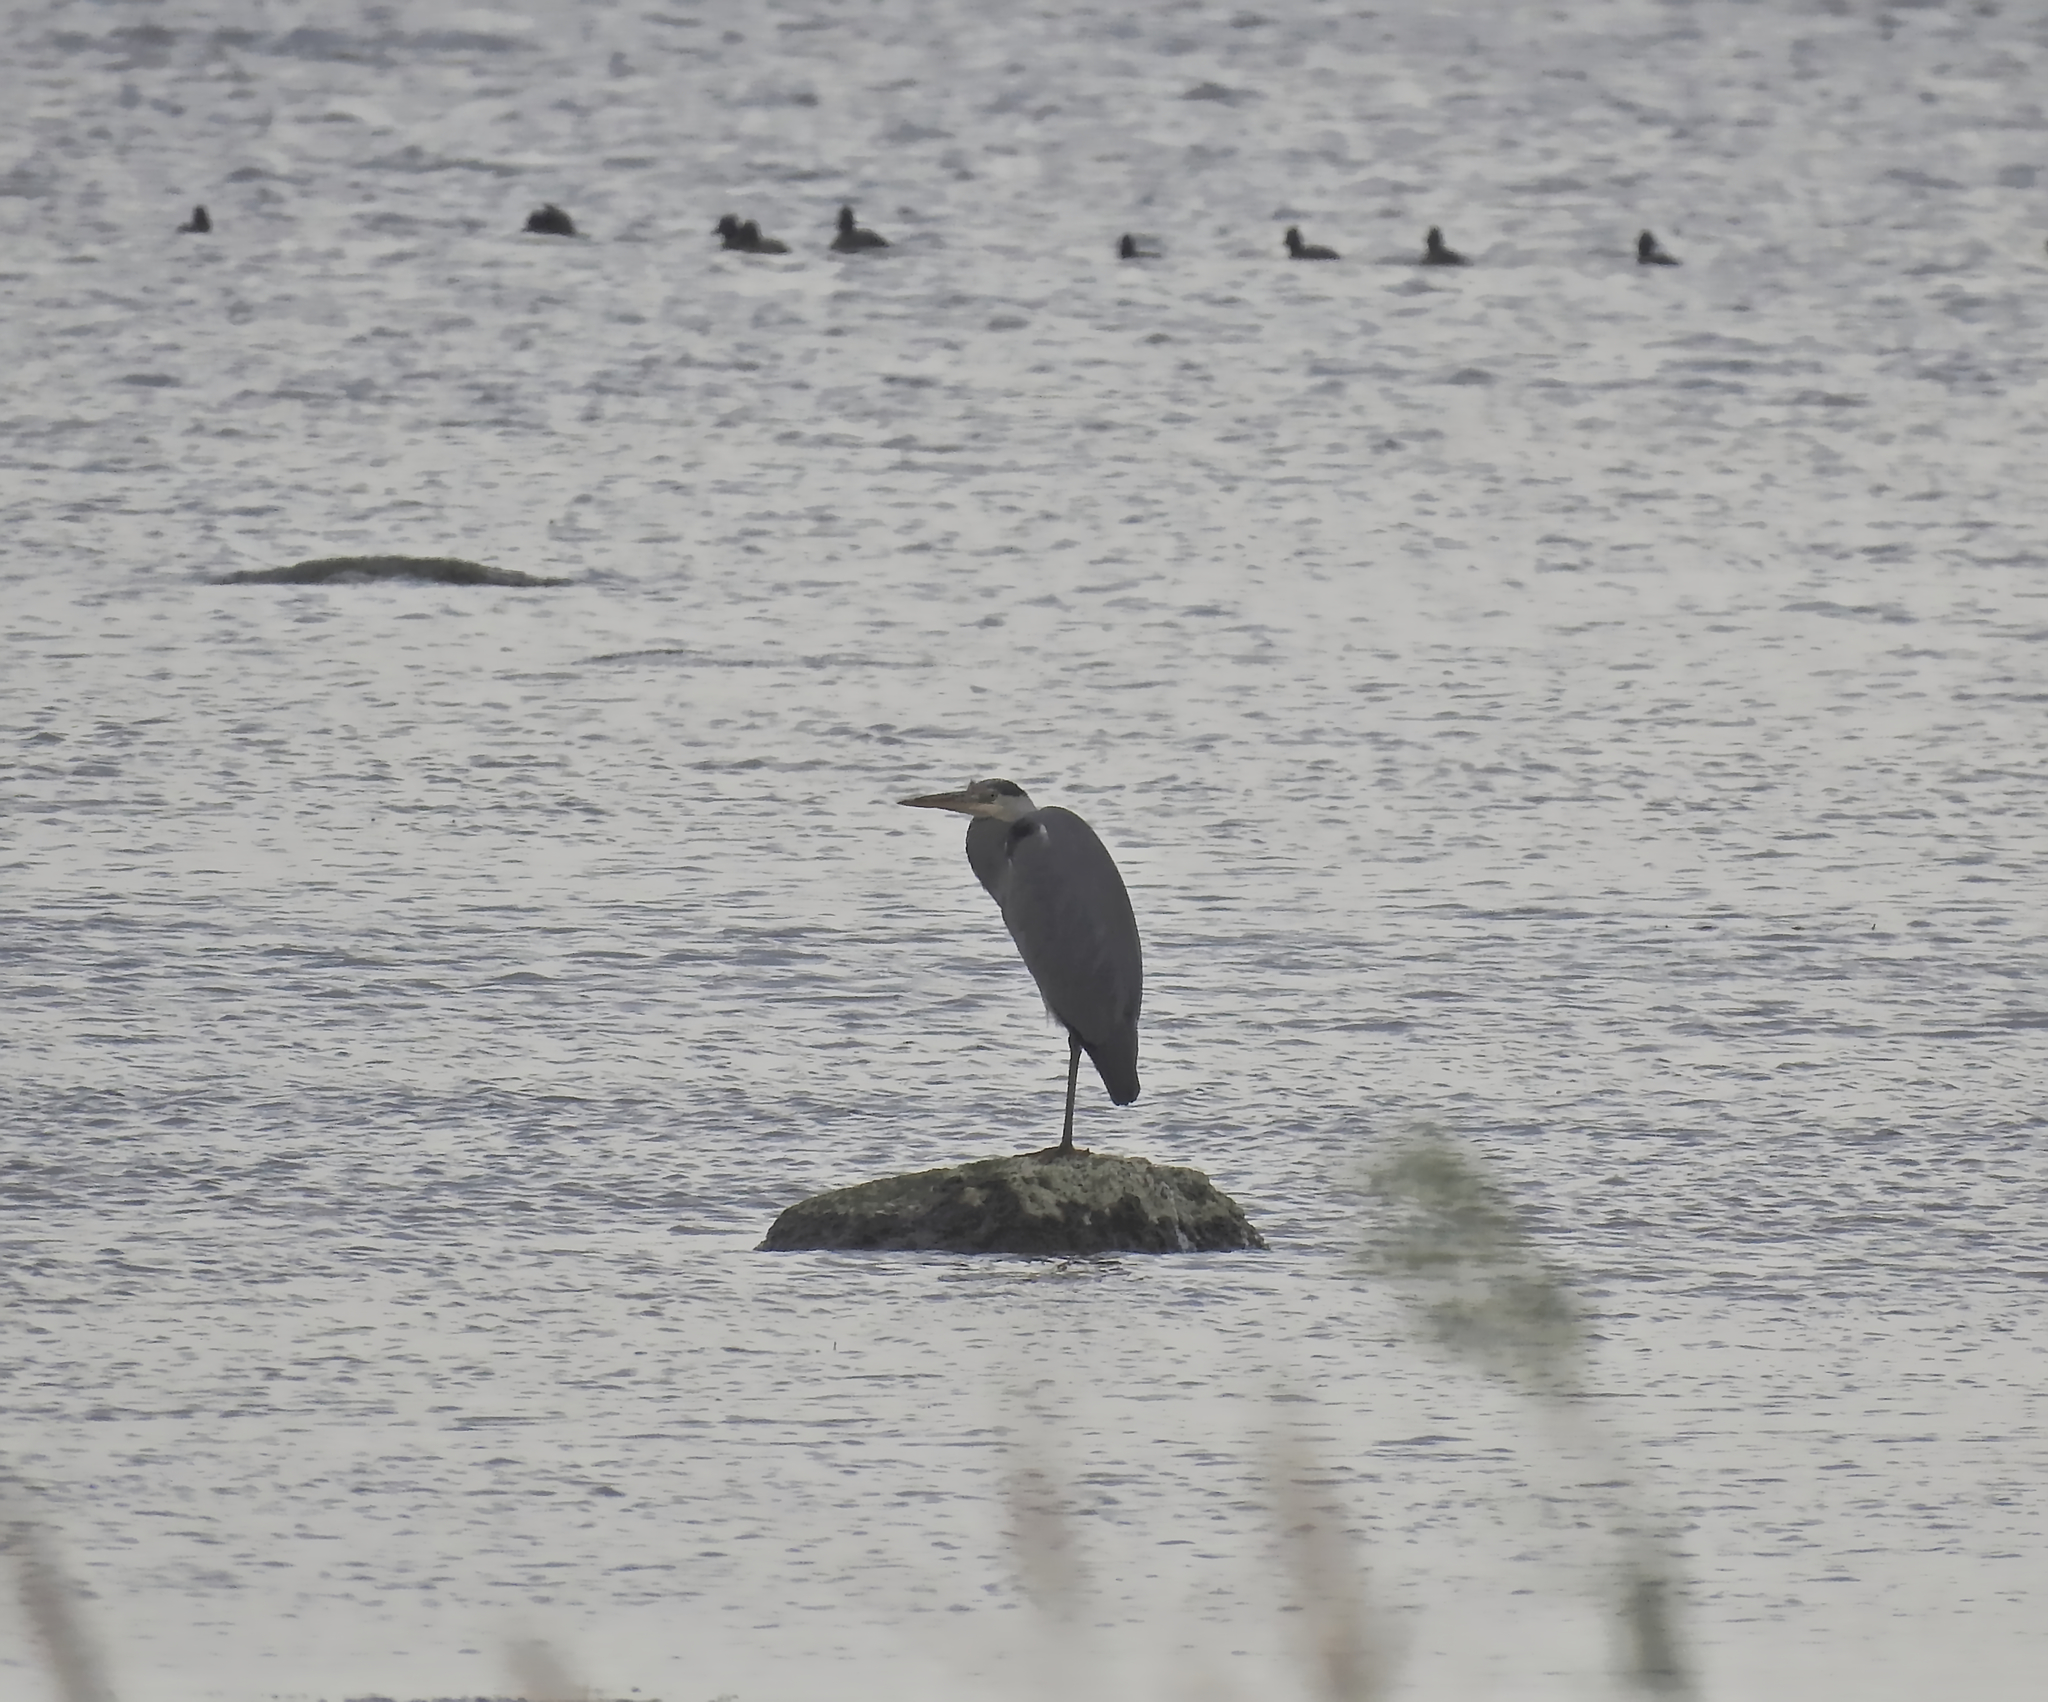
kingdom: Animalia
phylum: Chordata
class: Aves
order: Pelecaniformes
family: Ardeidae
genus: Ardea
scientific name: Ardea cinerea
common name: Grey heron
